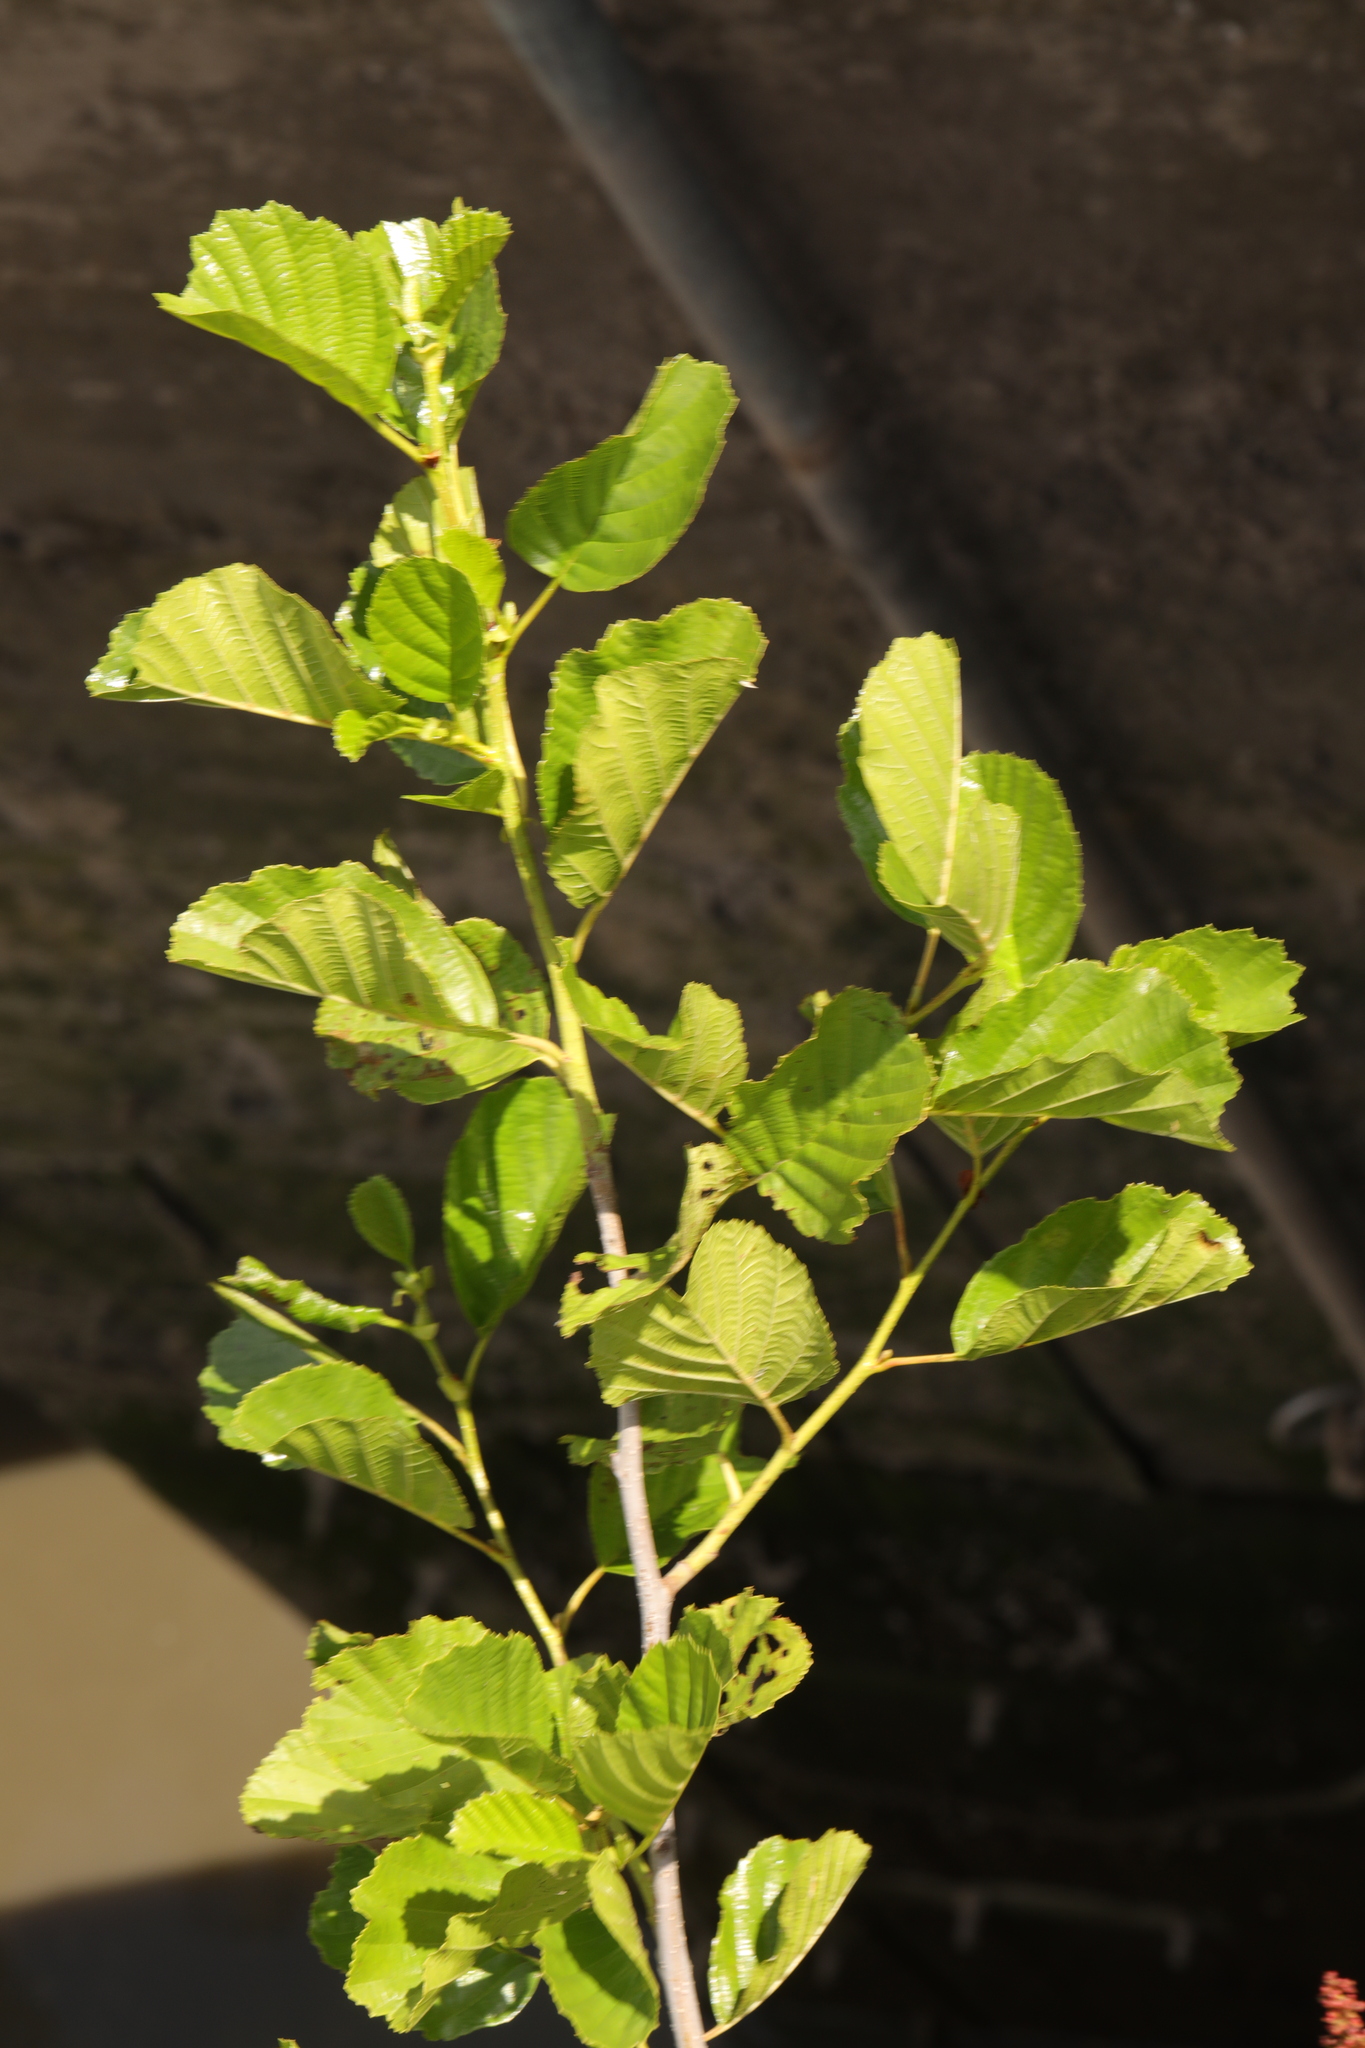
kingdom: Plantae
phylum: Tracheophyta
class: Magnoliopsida
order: Fagales
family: Betulaceae
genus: Alnus
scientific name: Alnus glutinosa
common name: Black alder
